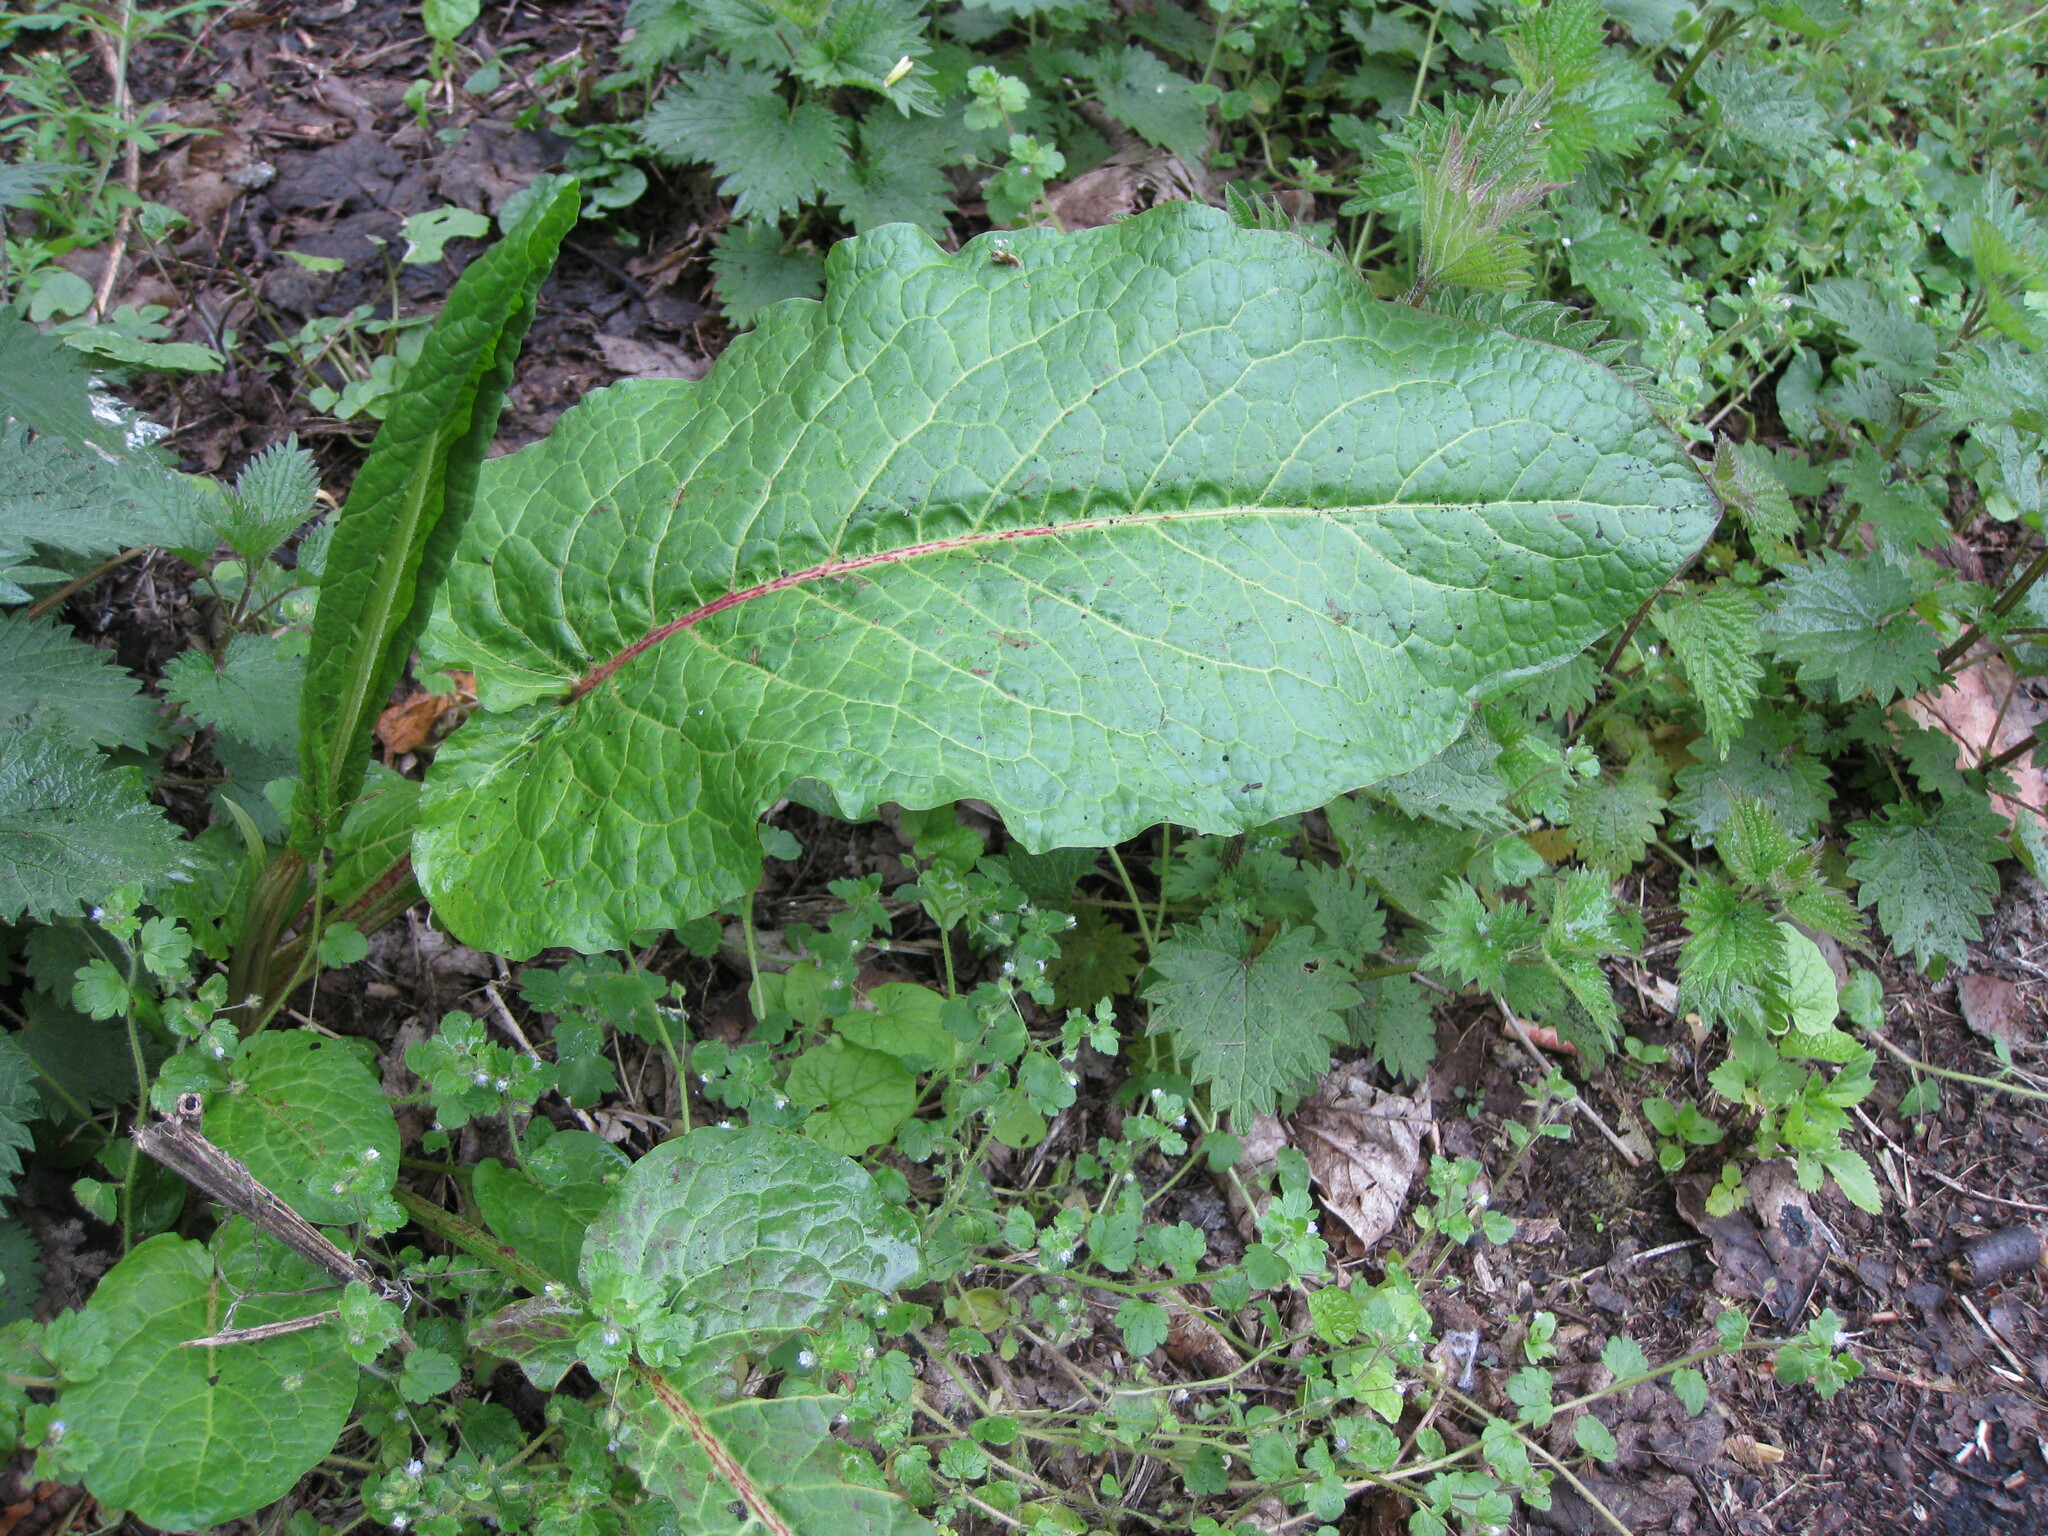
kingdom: Plantae
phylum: Tracheophyta
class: Magnoliopsida
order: Caryophyllales
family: Polygonaceae
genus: Rumex
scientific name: Rumex obtusifolius
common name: Bitter dock
